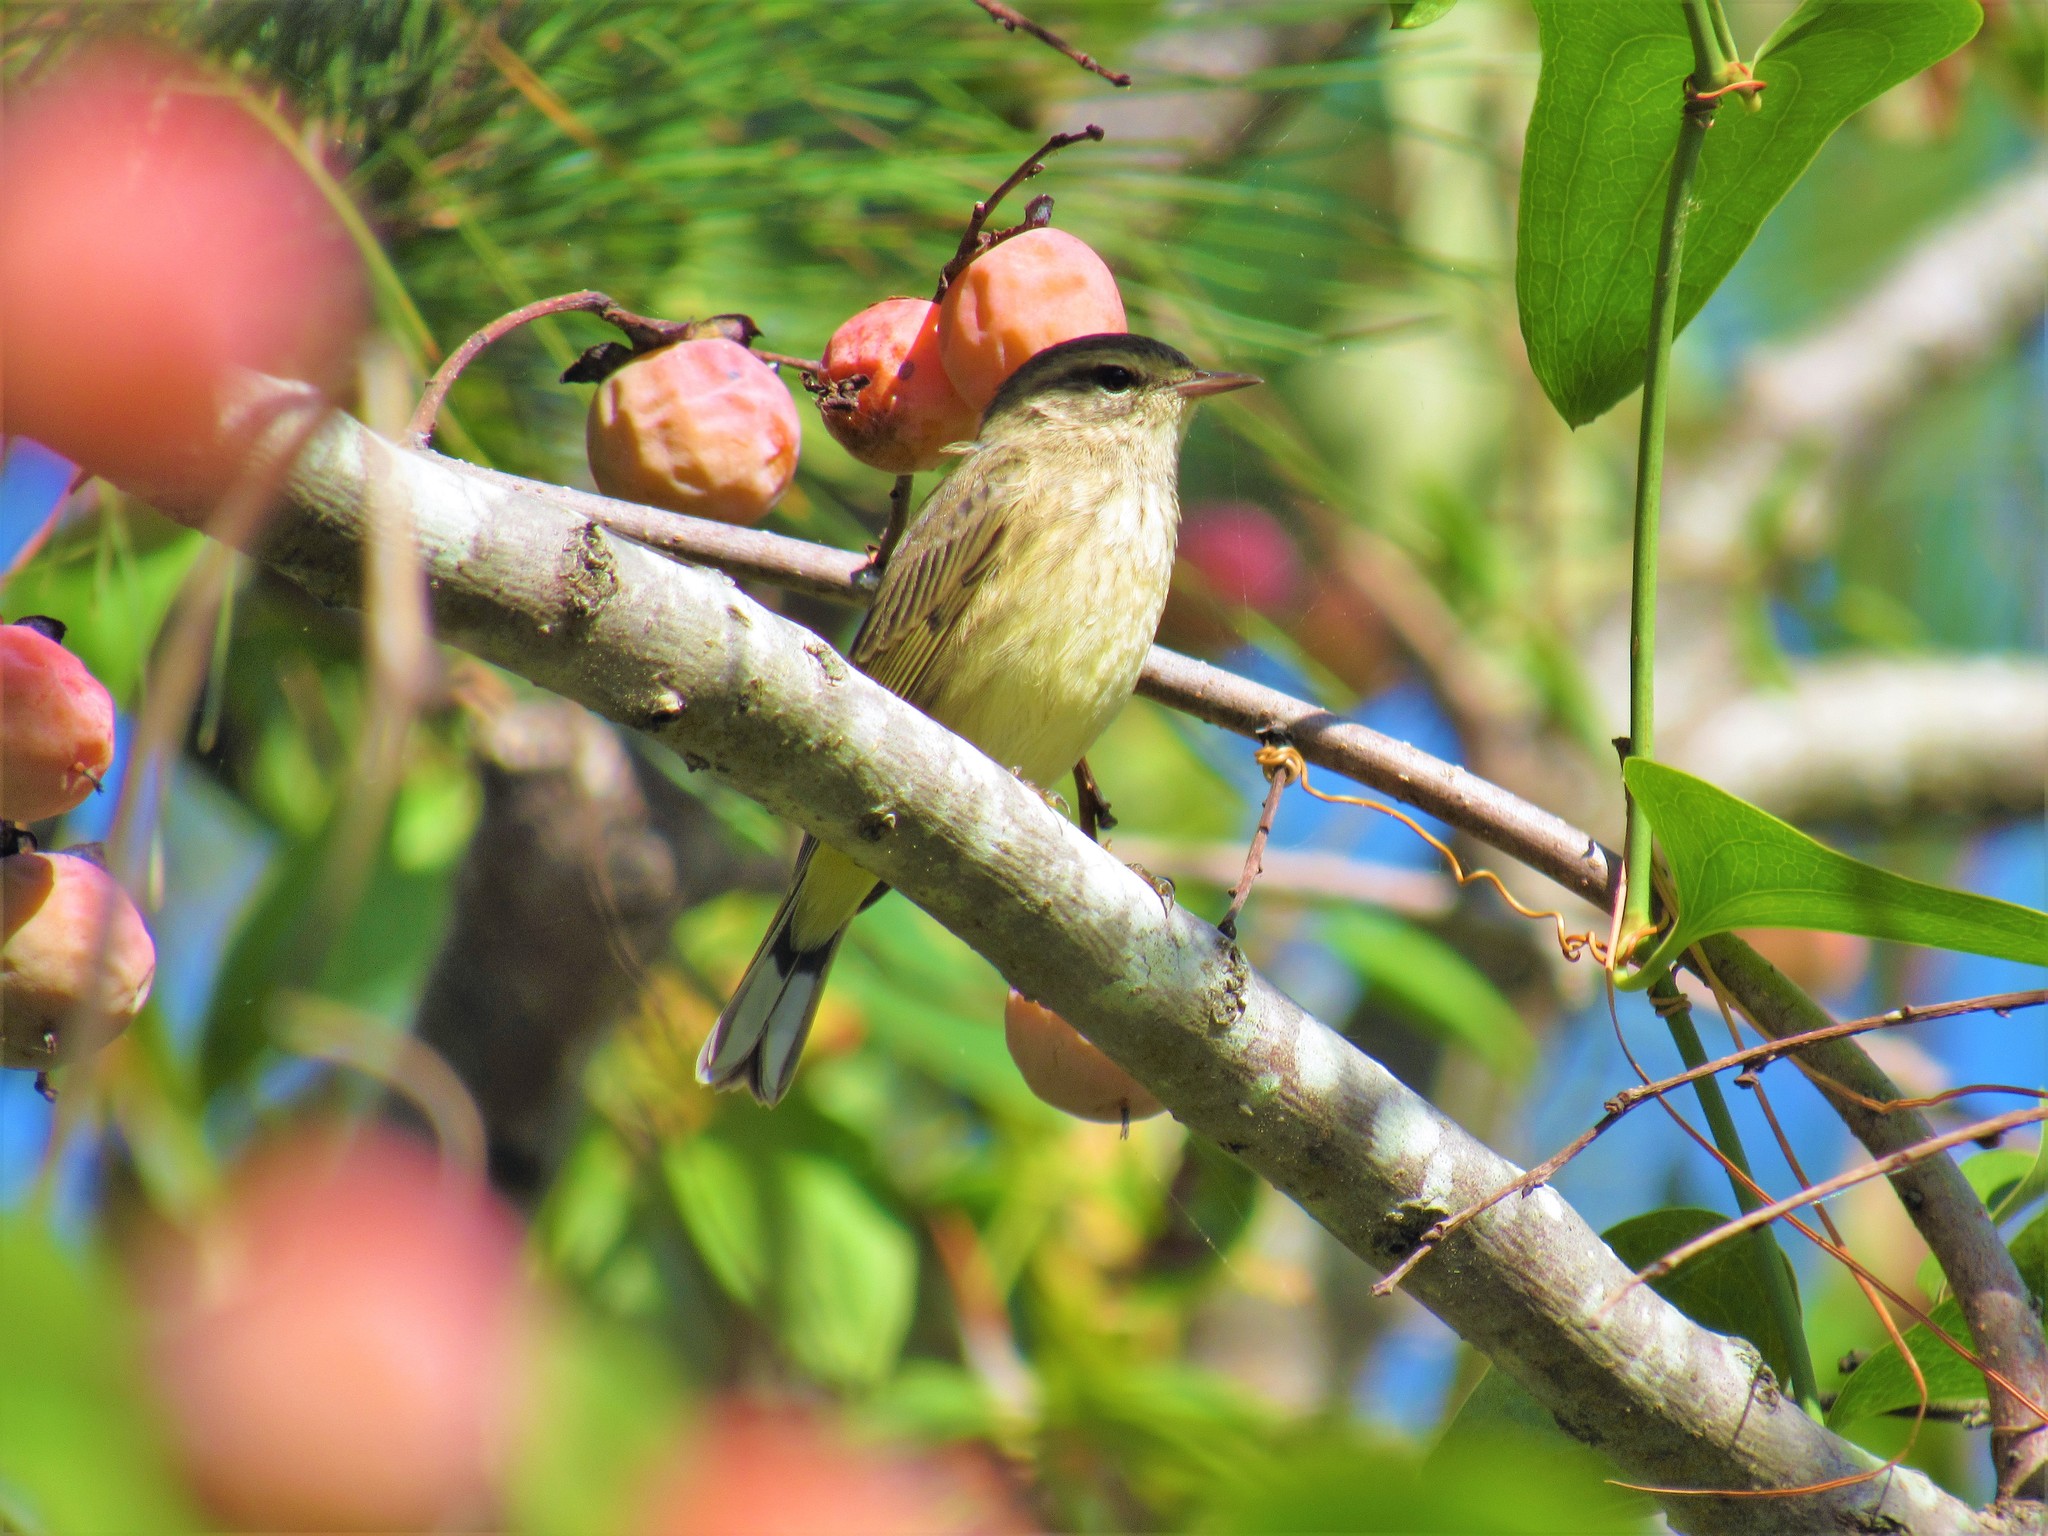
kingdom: Animalia
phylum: Chordata
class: Aves
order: Passeriformes
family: Parulidae
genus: Setophaga
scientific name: Setophaga palmarum
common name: Palm warbler
